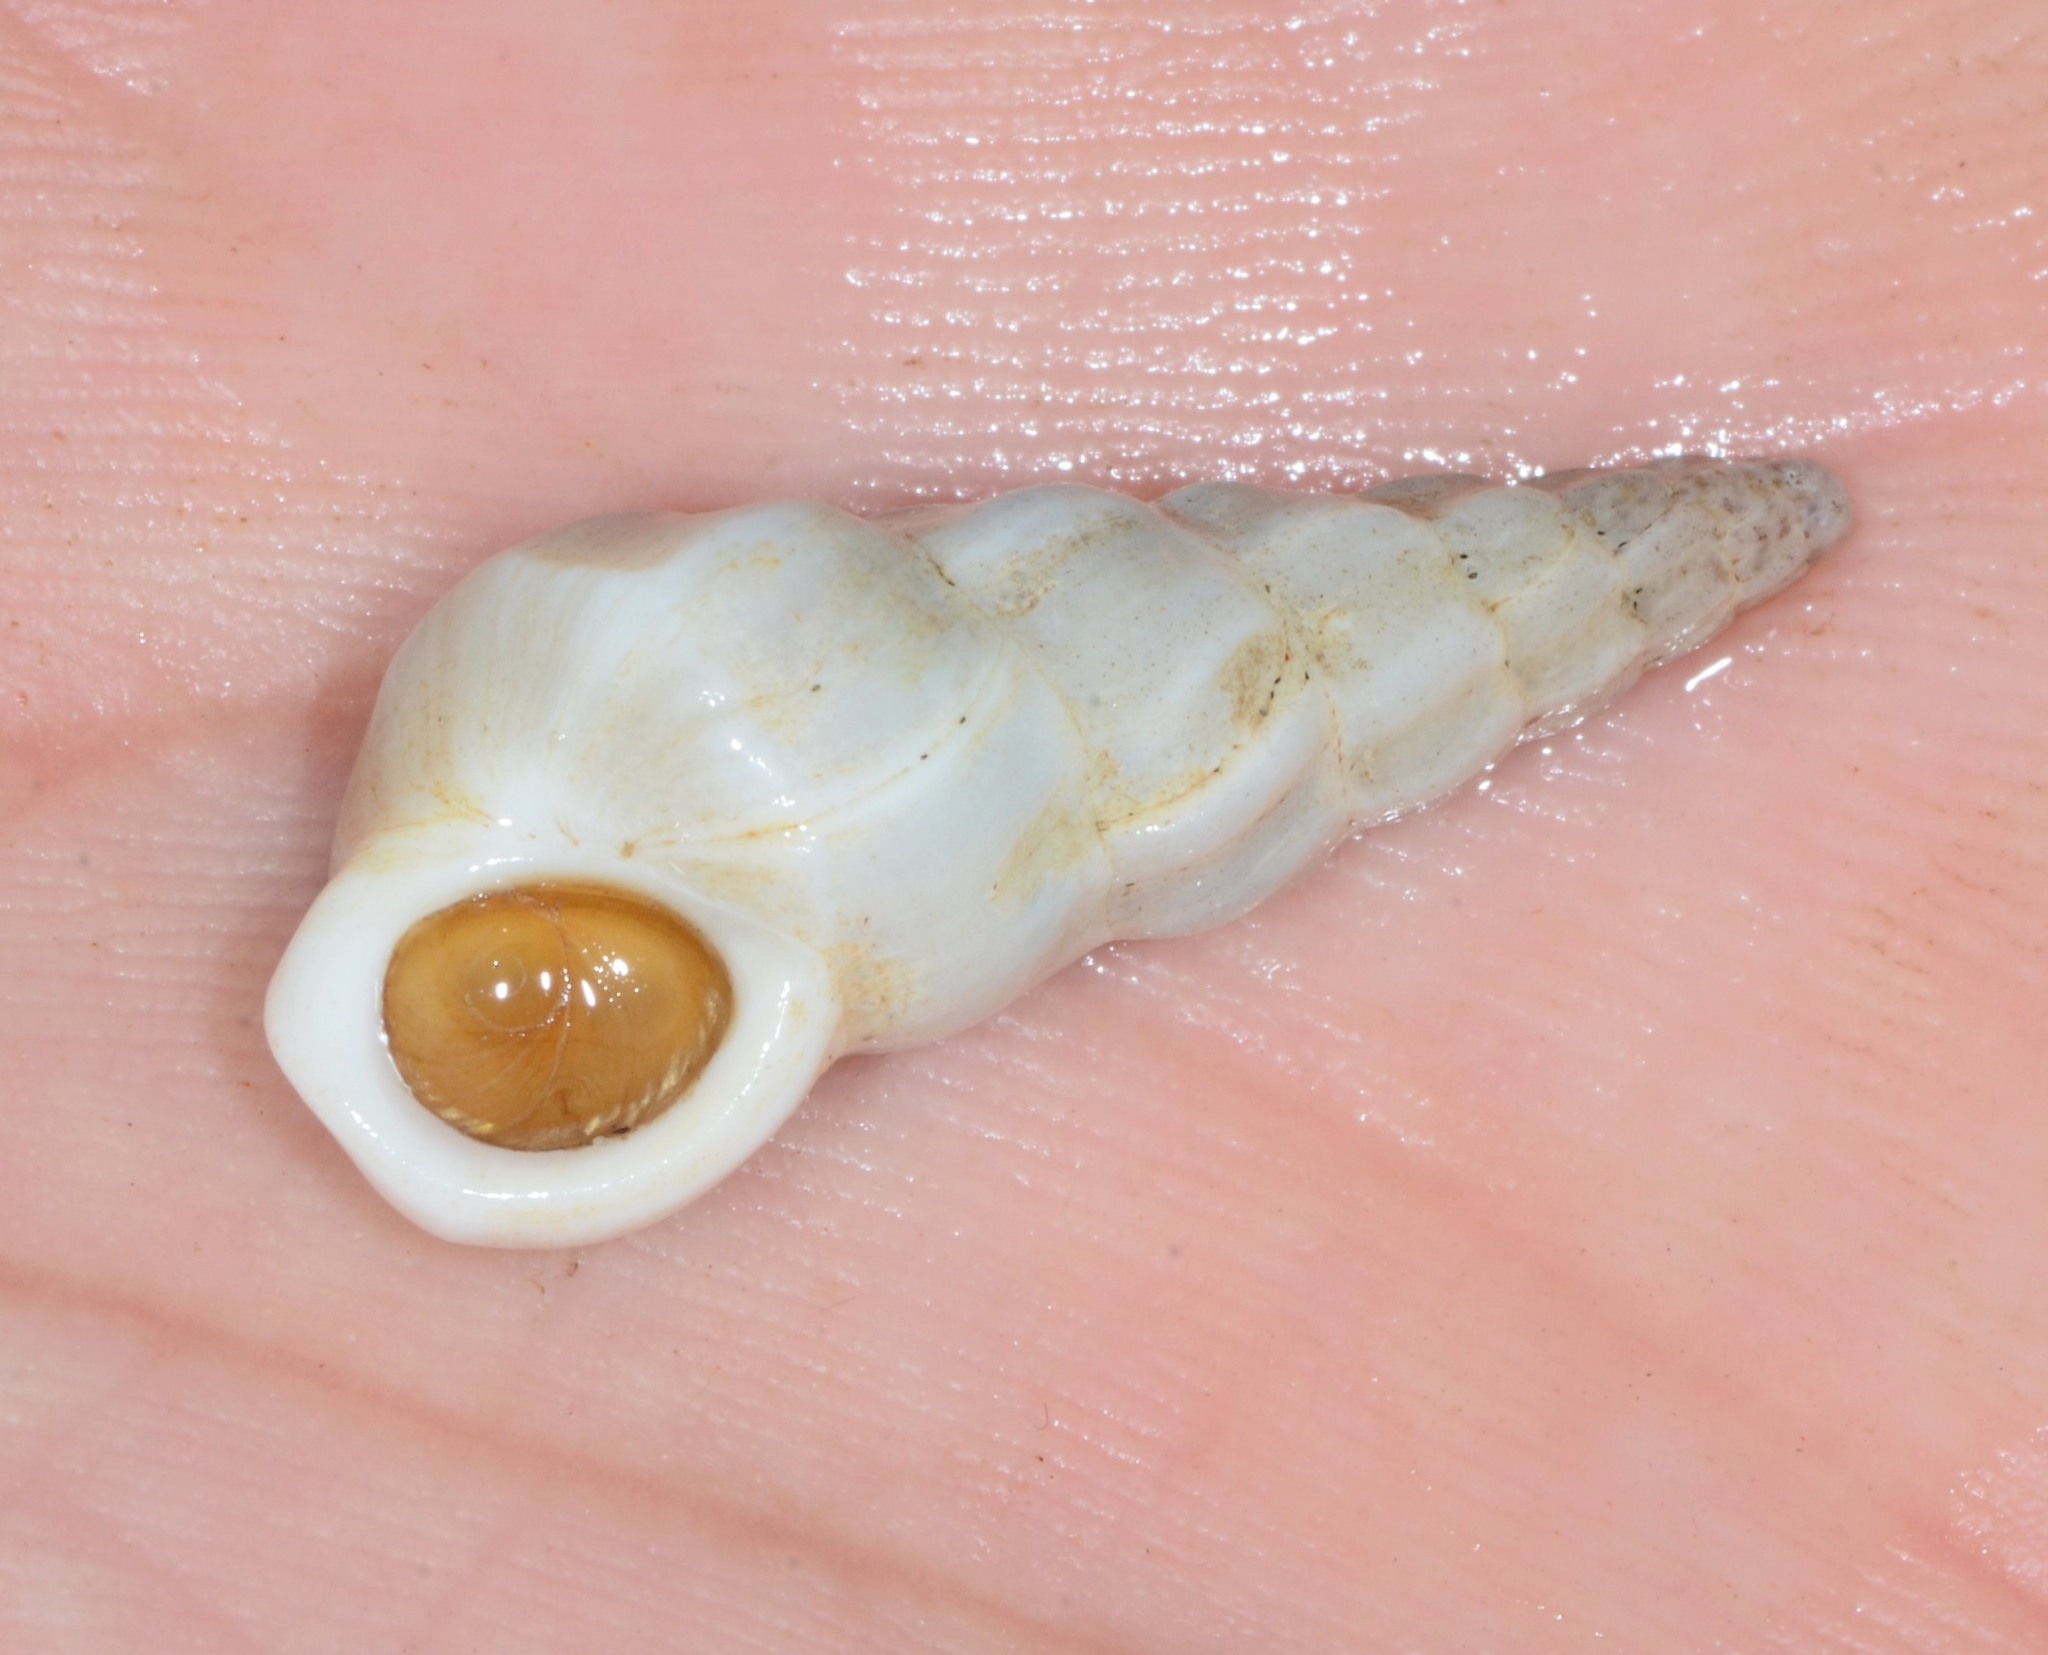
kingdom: Animalia
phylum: Mollusca
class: Gastropoda
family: Epitoniidae
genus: Opalia
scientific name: Opalia wroblewskyi
